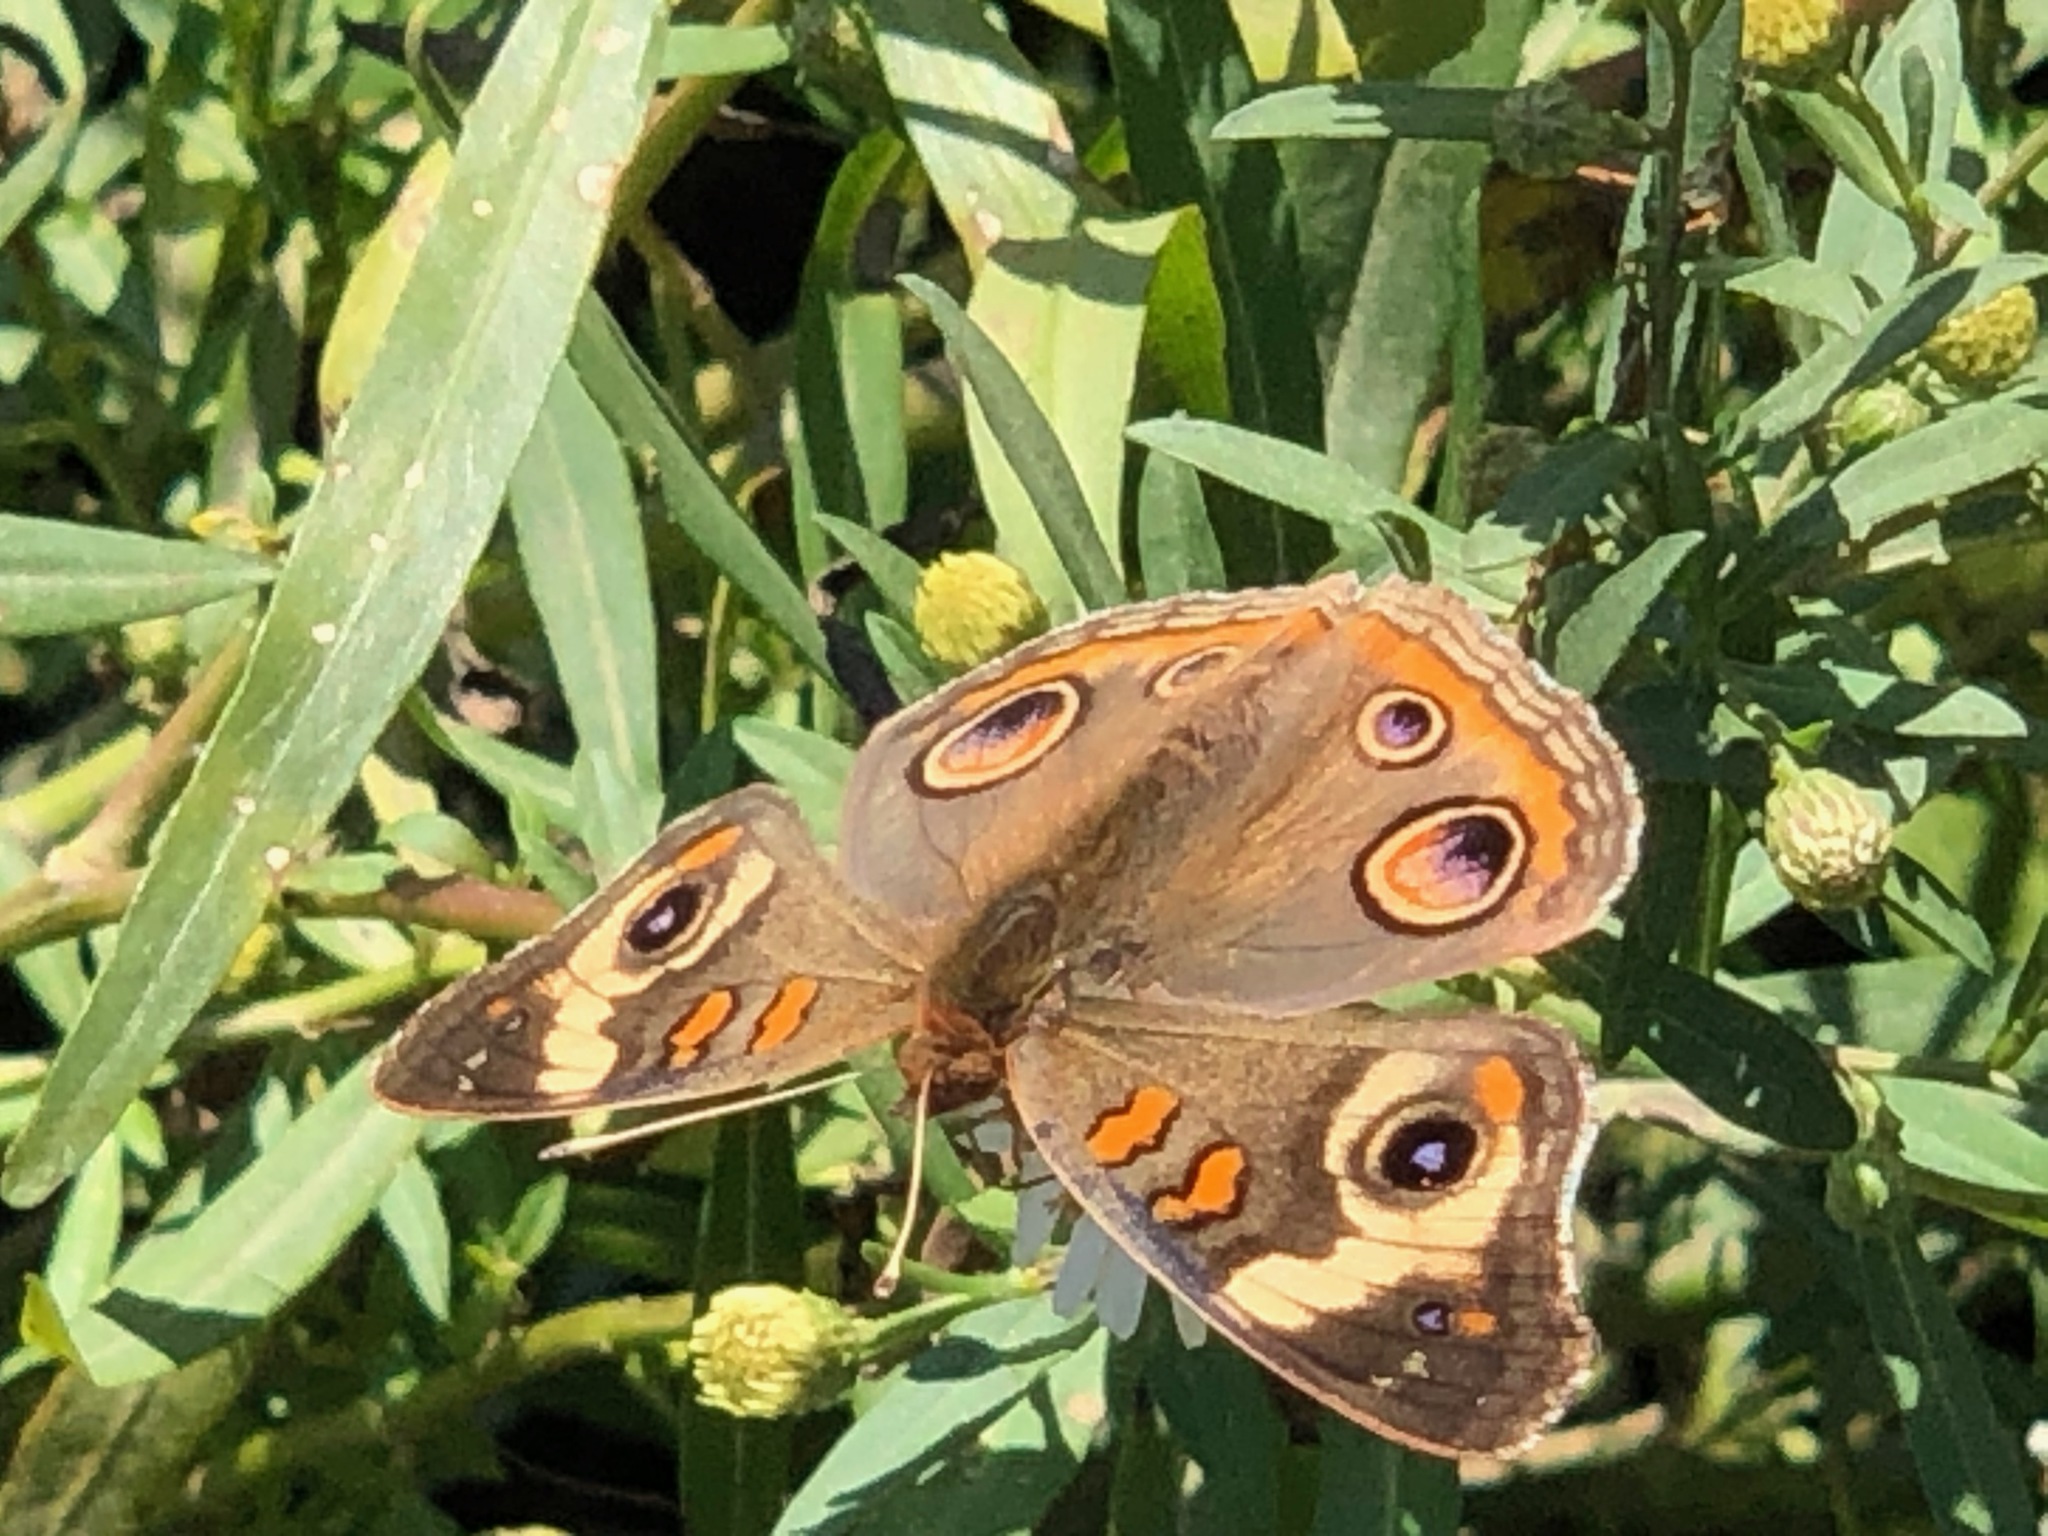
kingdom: Animalia
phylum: Arthropoda
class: Insecta
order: Lepidoptera
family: Nymphalidae
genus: Junonia
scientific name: Junonia coenia
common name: Common buckeye
